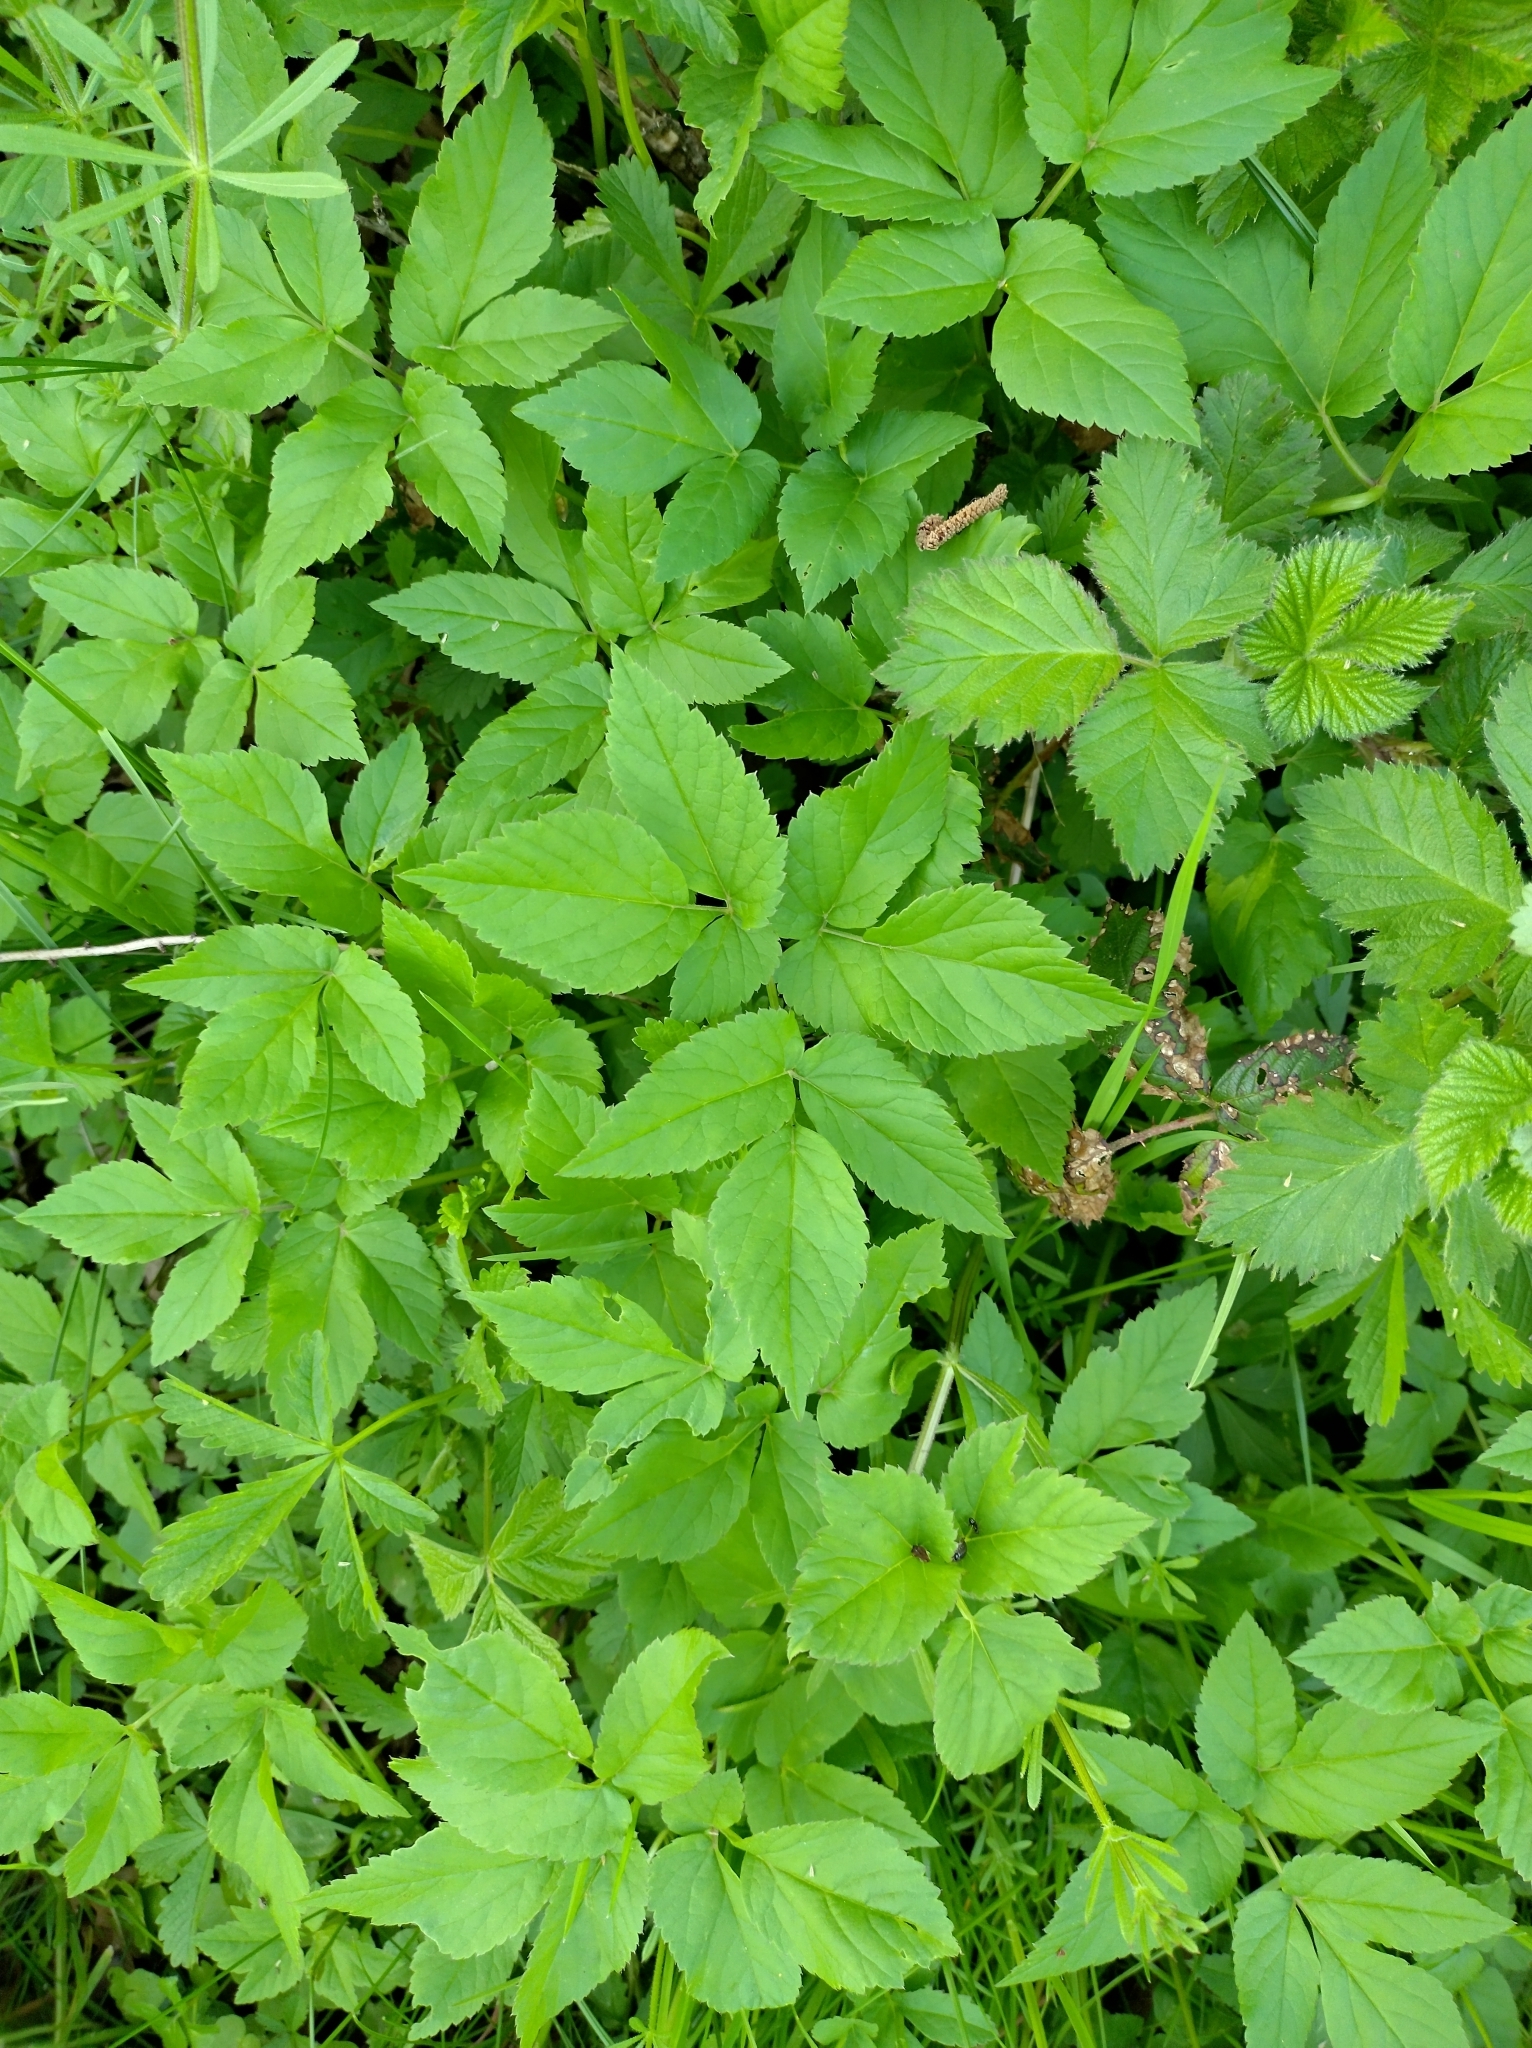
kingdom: Plantae
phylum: Tracheophyta
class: Magnoliopsida
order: Apiales
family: Apiaceae
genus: Aegopodium
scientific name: Aegopodium podagraria
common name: Ground-elder
